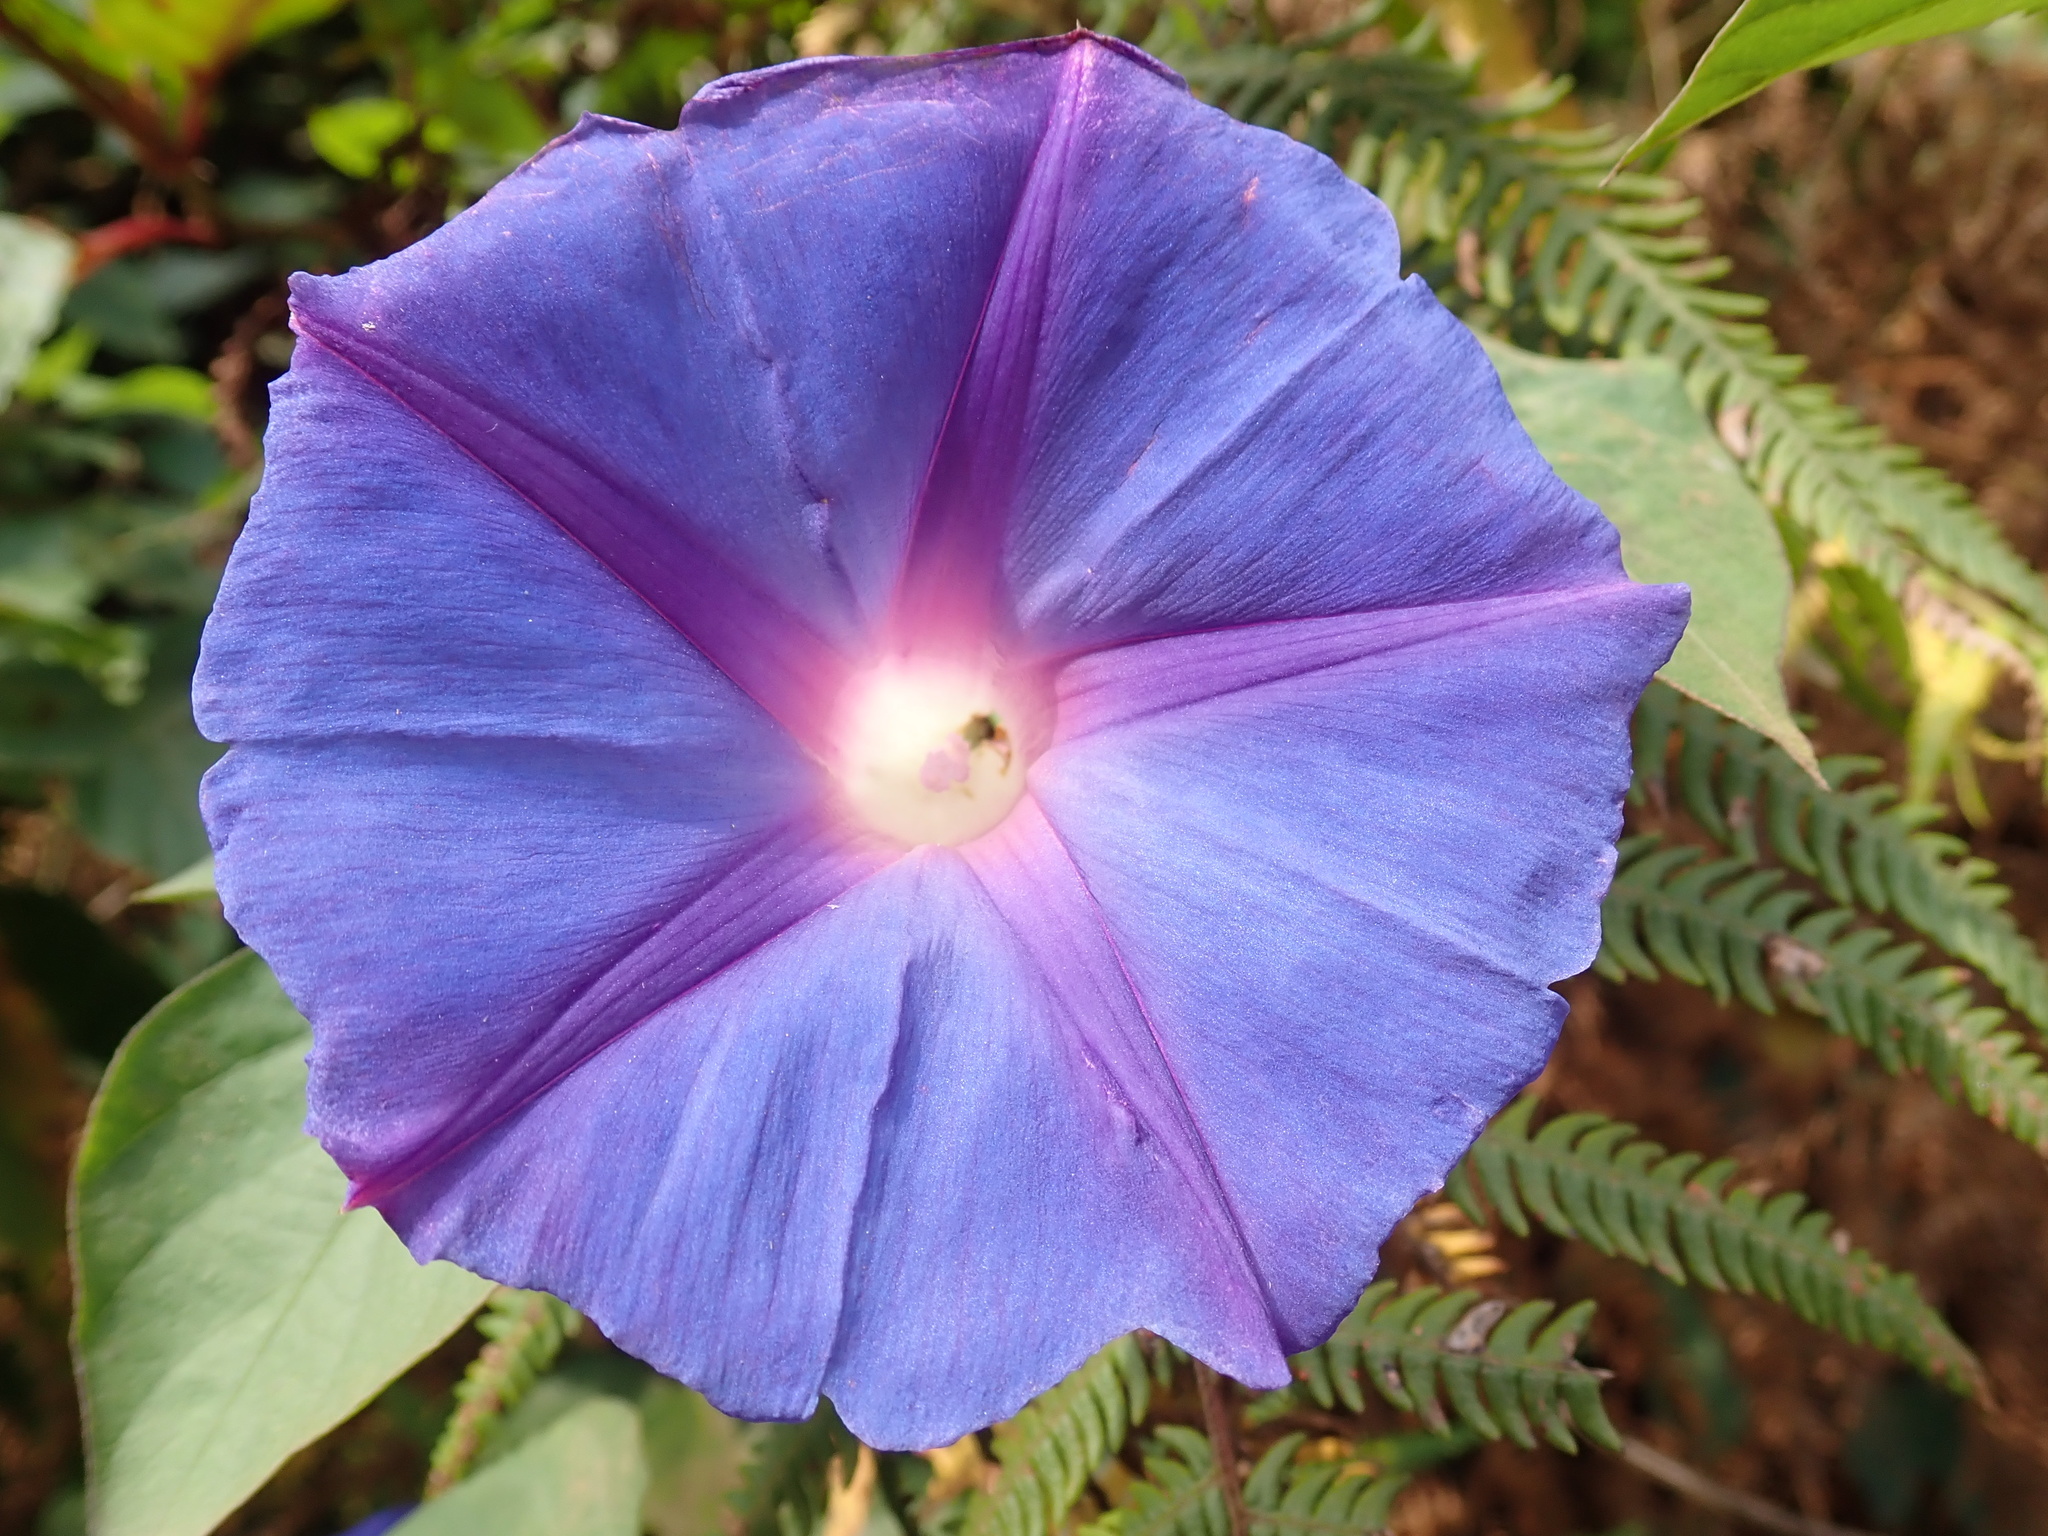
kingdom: Plantae
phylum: Tracheophyta
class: Magnoliopsida
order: Solanales
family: Convolvulaceae
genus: Ipomoea
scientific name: Ipomoea indica
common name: Blue dawnflower
